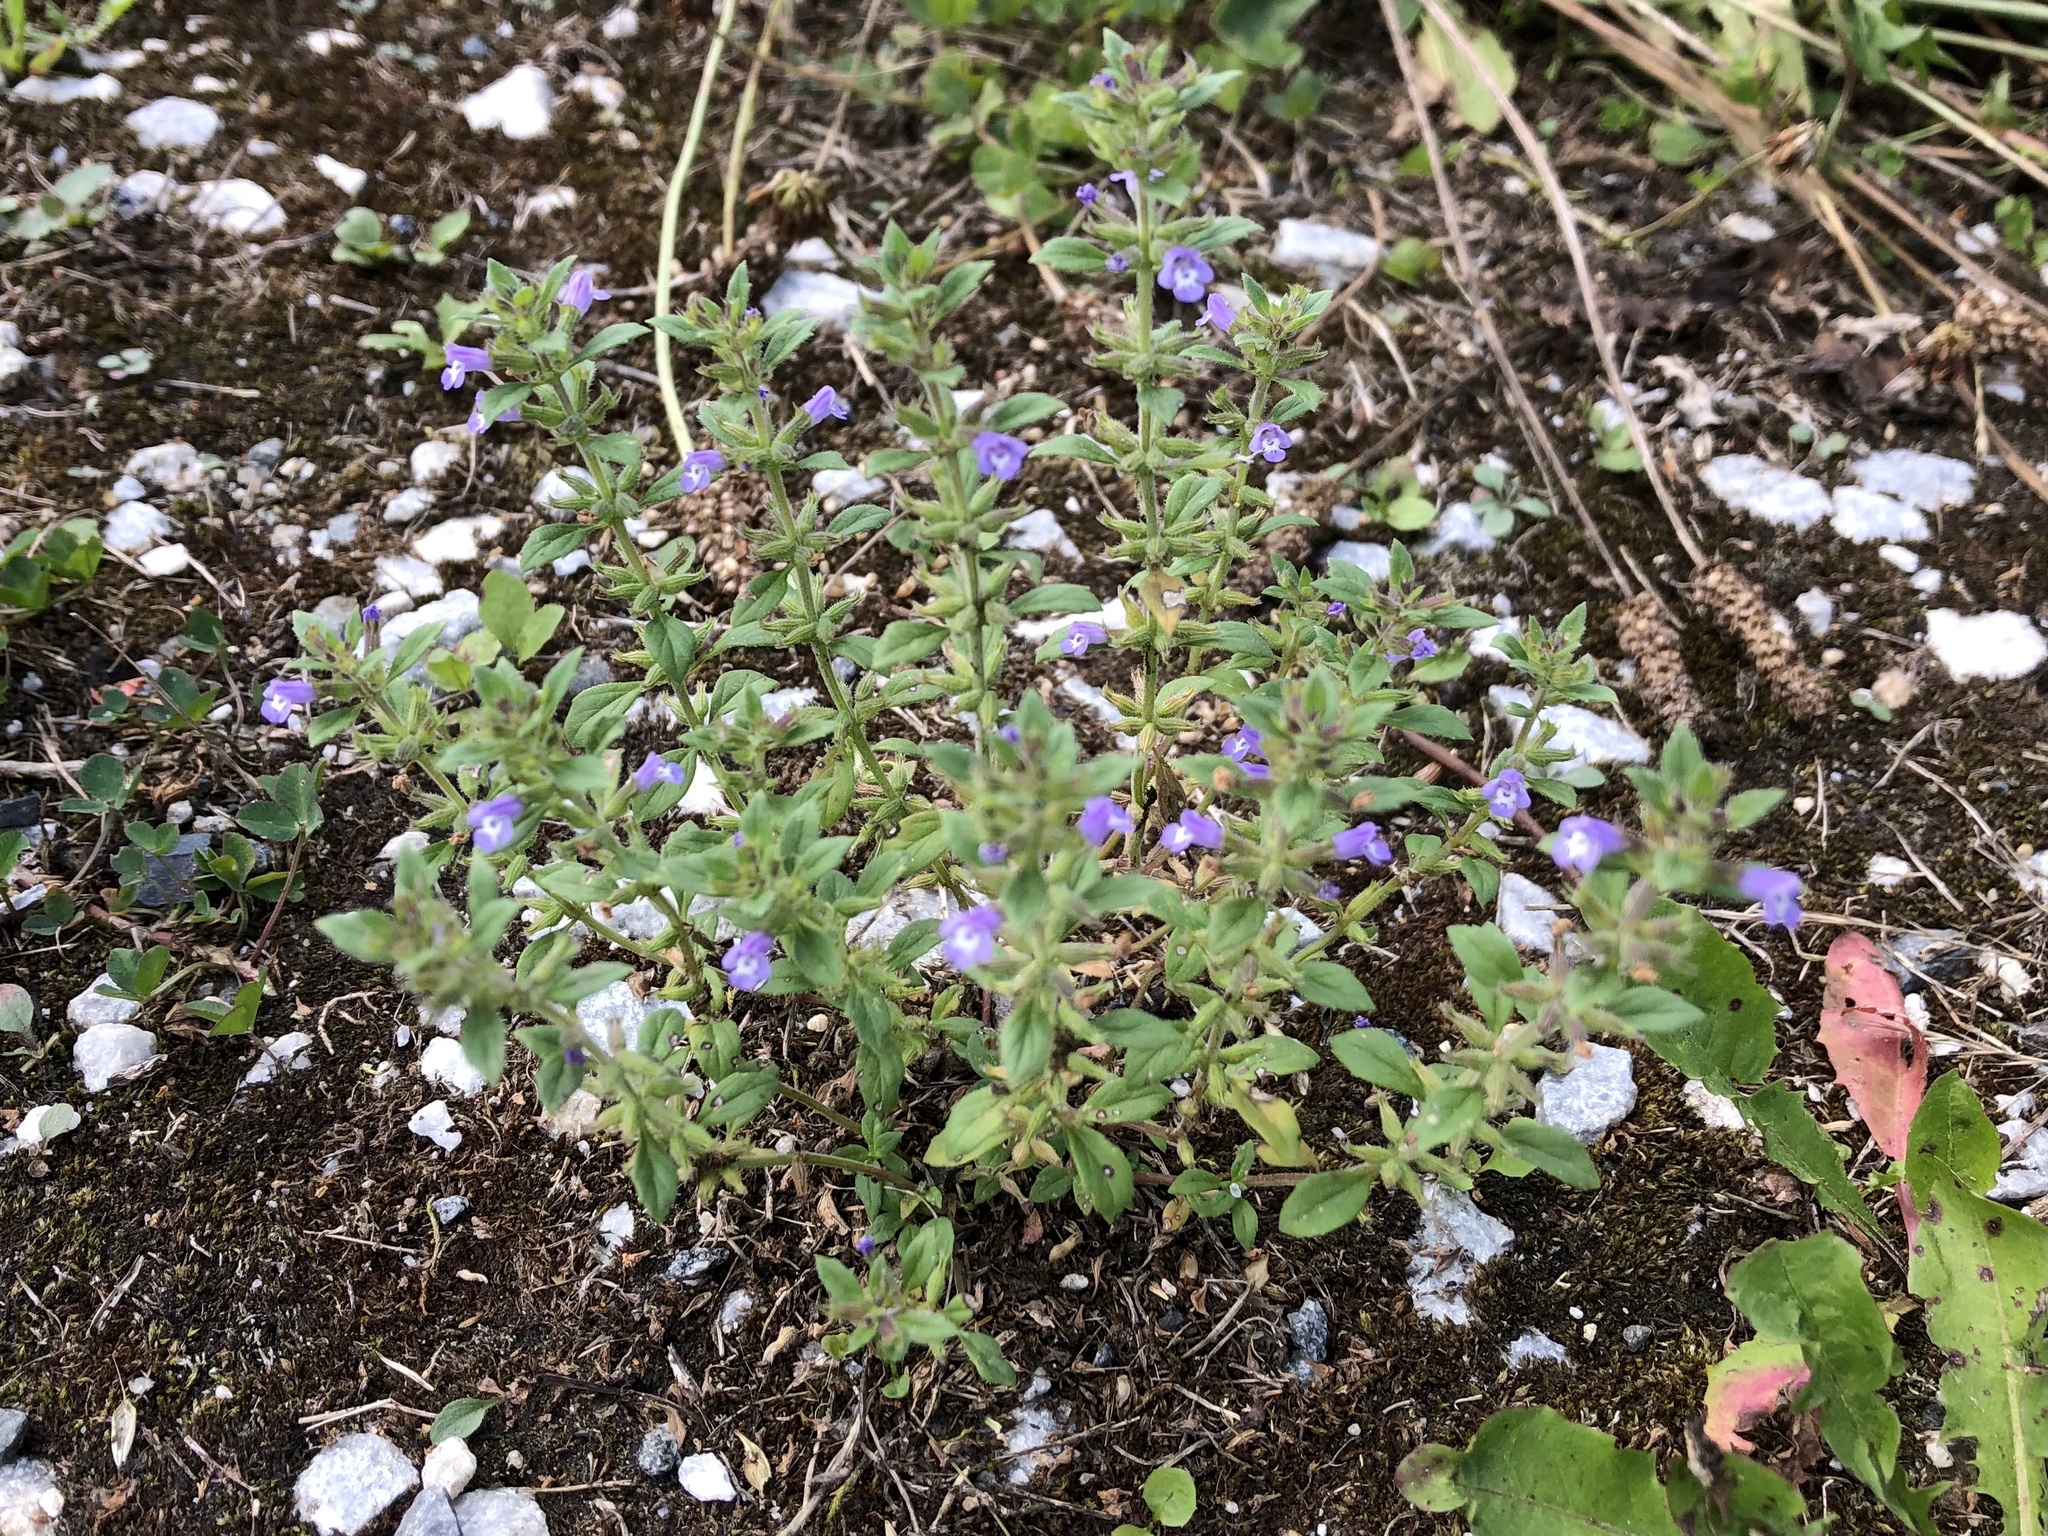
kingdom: Plantae
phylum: Tracheophyta
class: Magnoliopsida
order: Lamiales
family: Lamiaceae
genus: Clinopodium
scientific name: Clinopodium acinos
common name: Basil thyme
